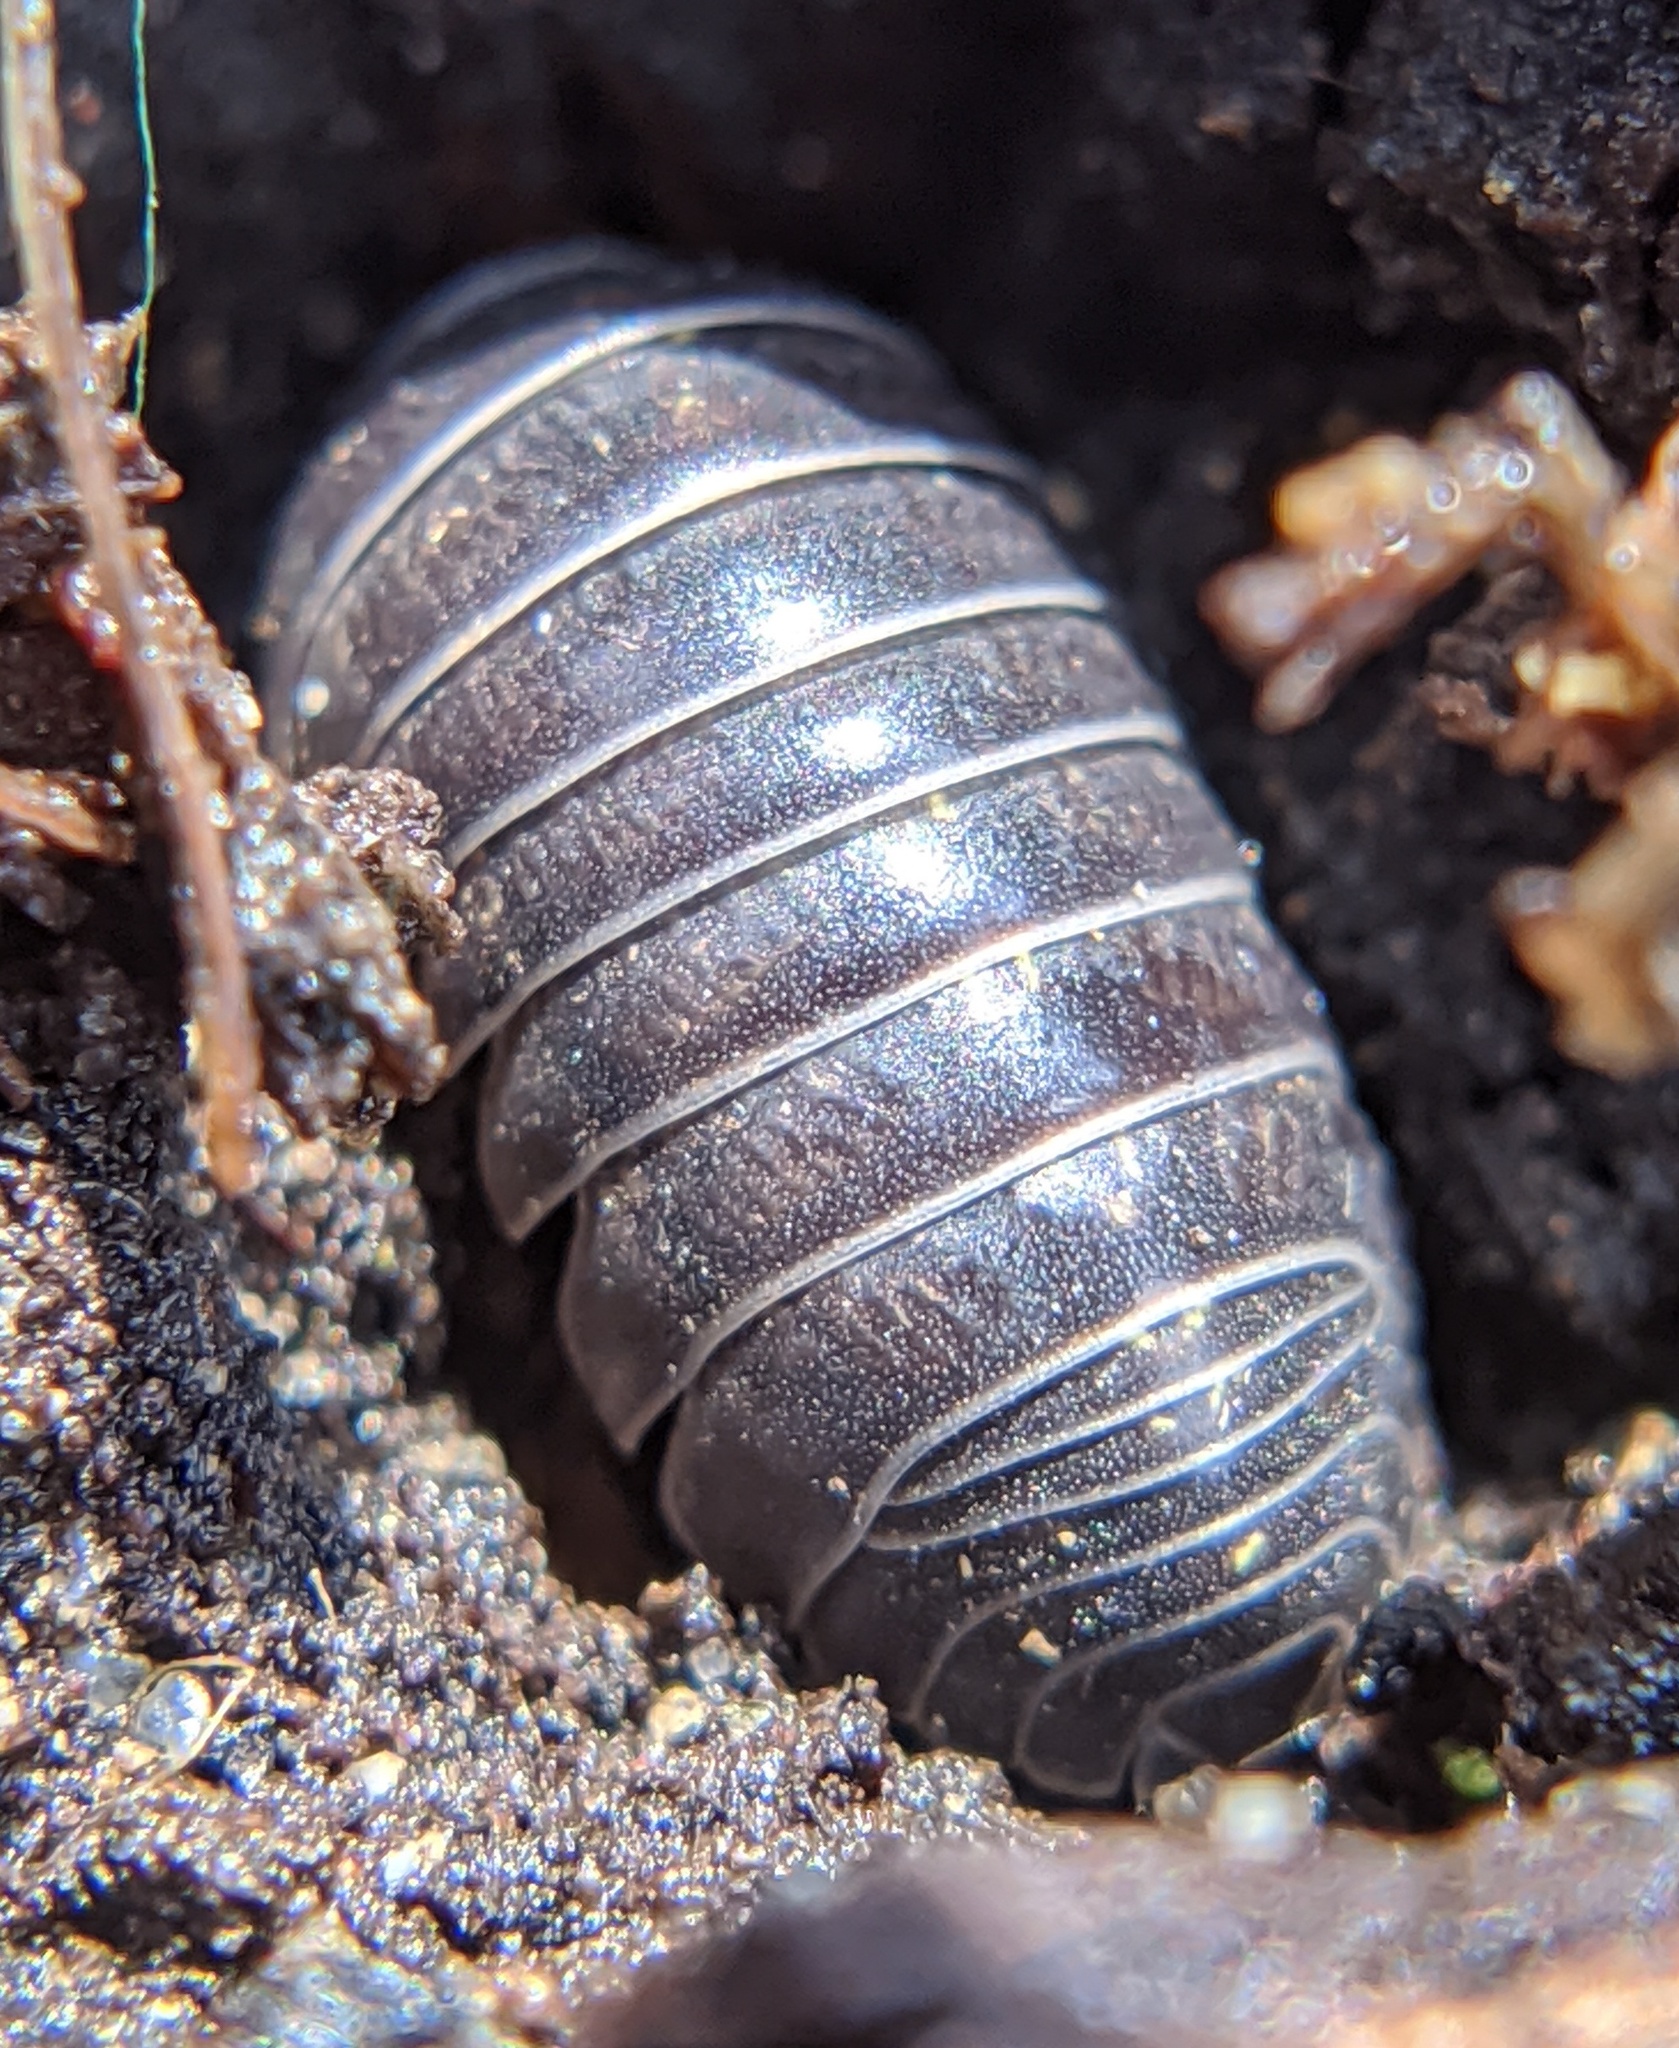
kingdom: Animalia
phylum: Arthropoda
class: Malacostraca
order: Isopoda
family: Armadillidiidae
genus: Armadillidium
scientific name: Armadillidium vulgare
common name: Common pill woodlouse
